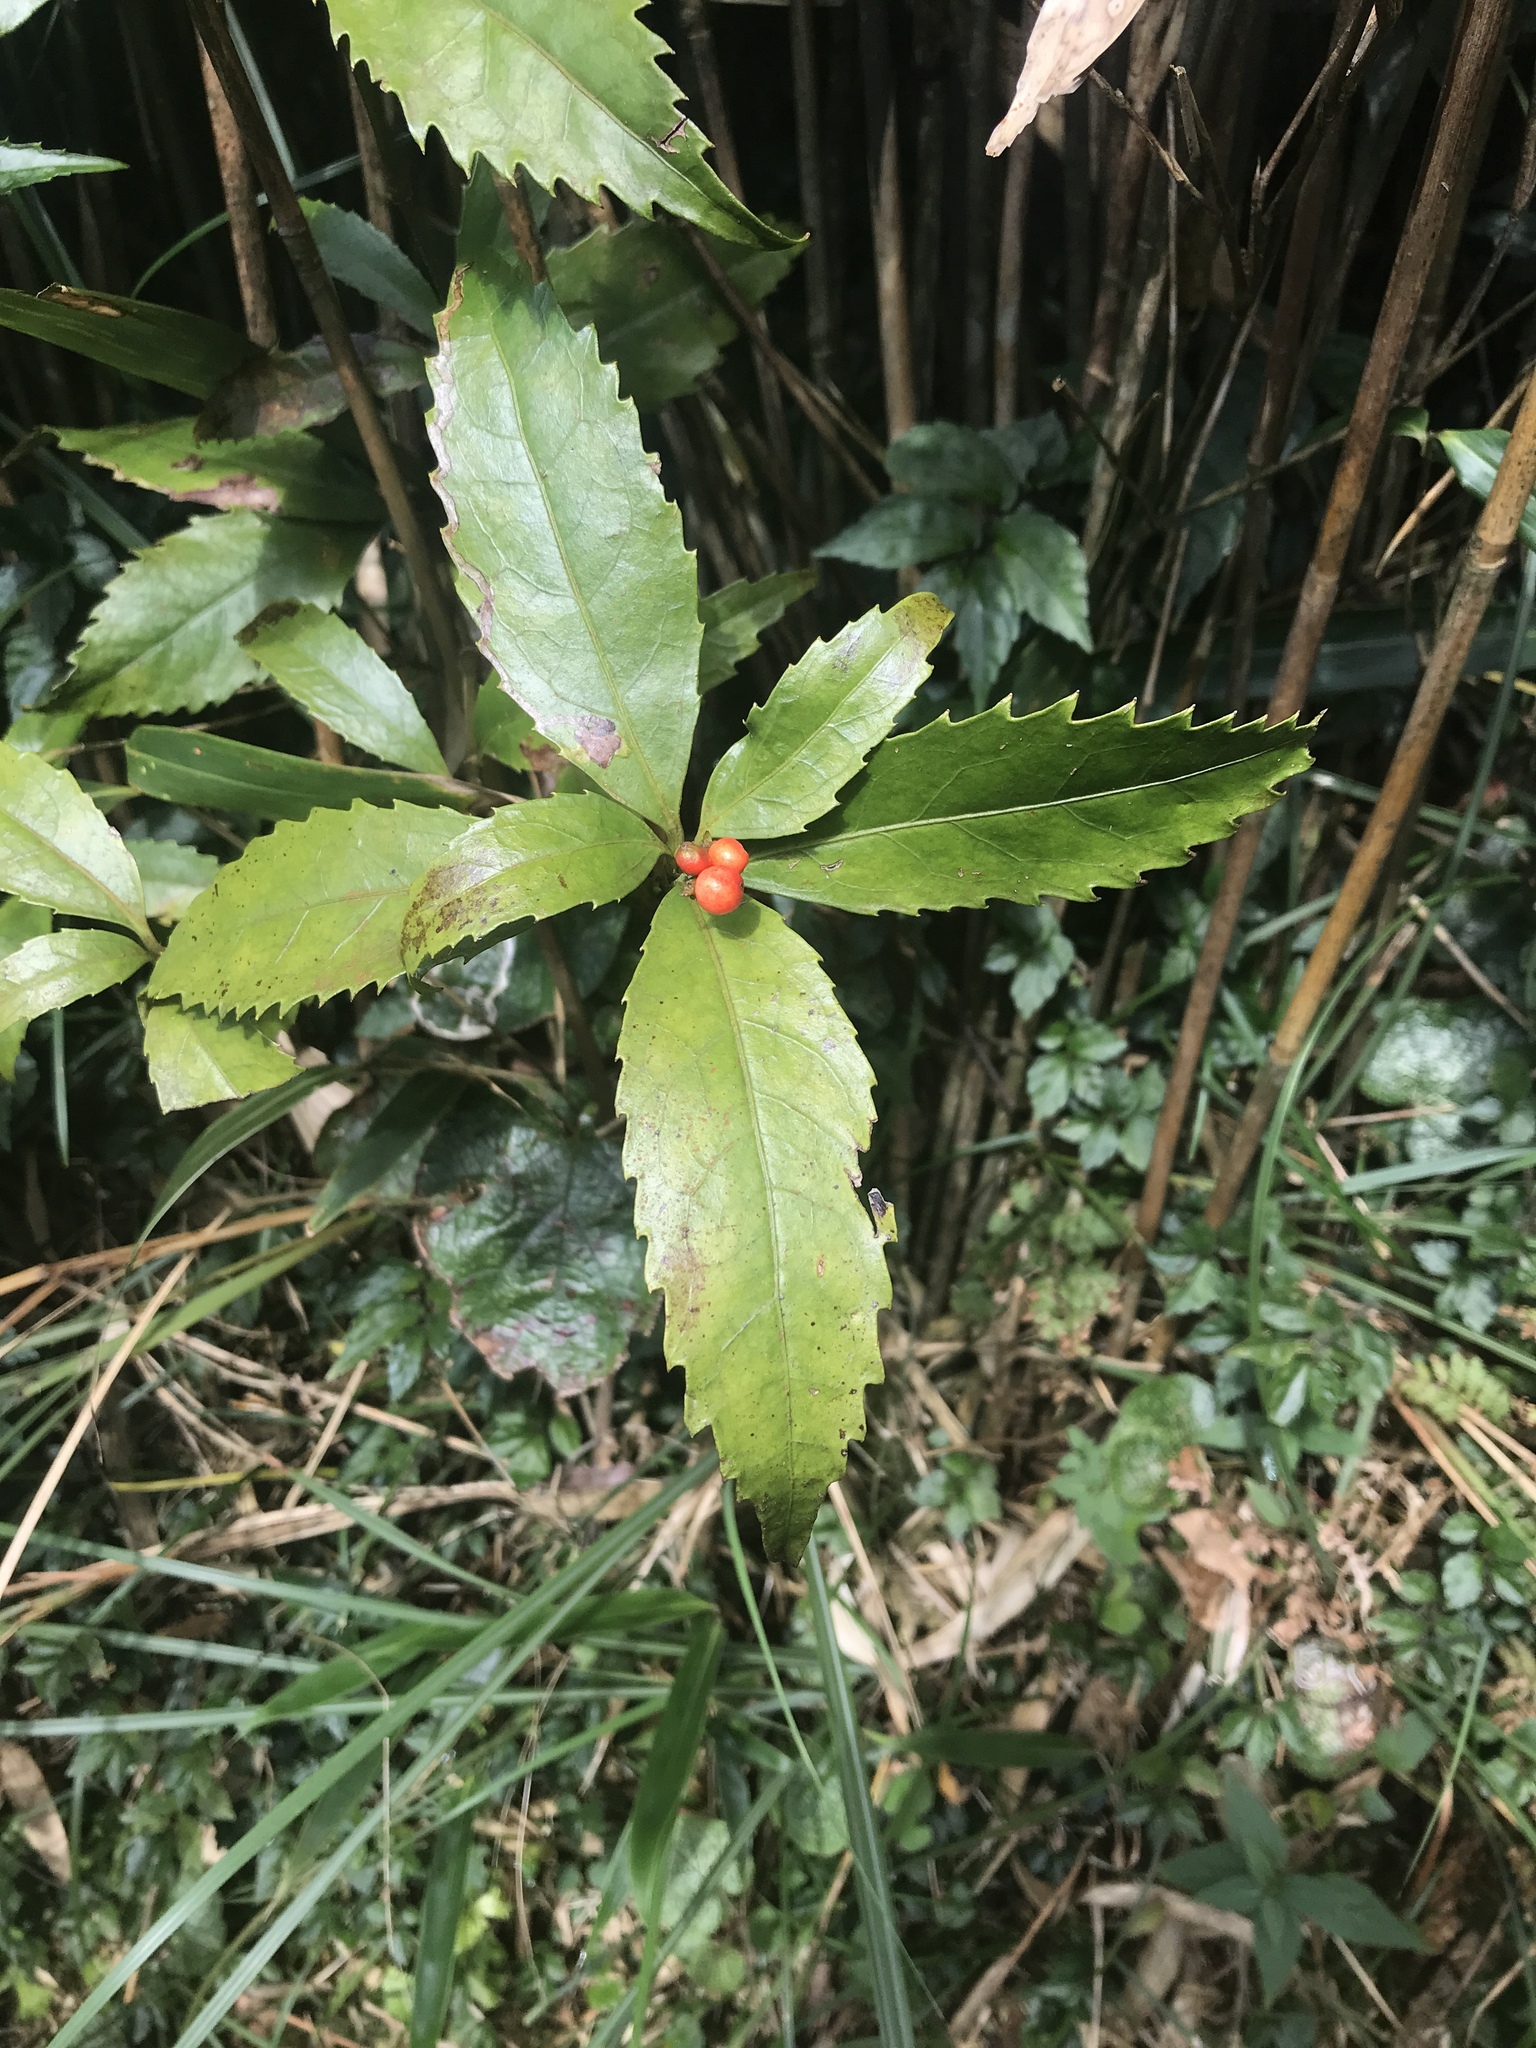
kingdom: Plantae
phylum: Tracheophyta
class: Magnoliopsida
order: Chloranthales
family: Chloranthaceae
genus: Sarcandra
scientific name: Sarcandra glabra
